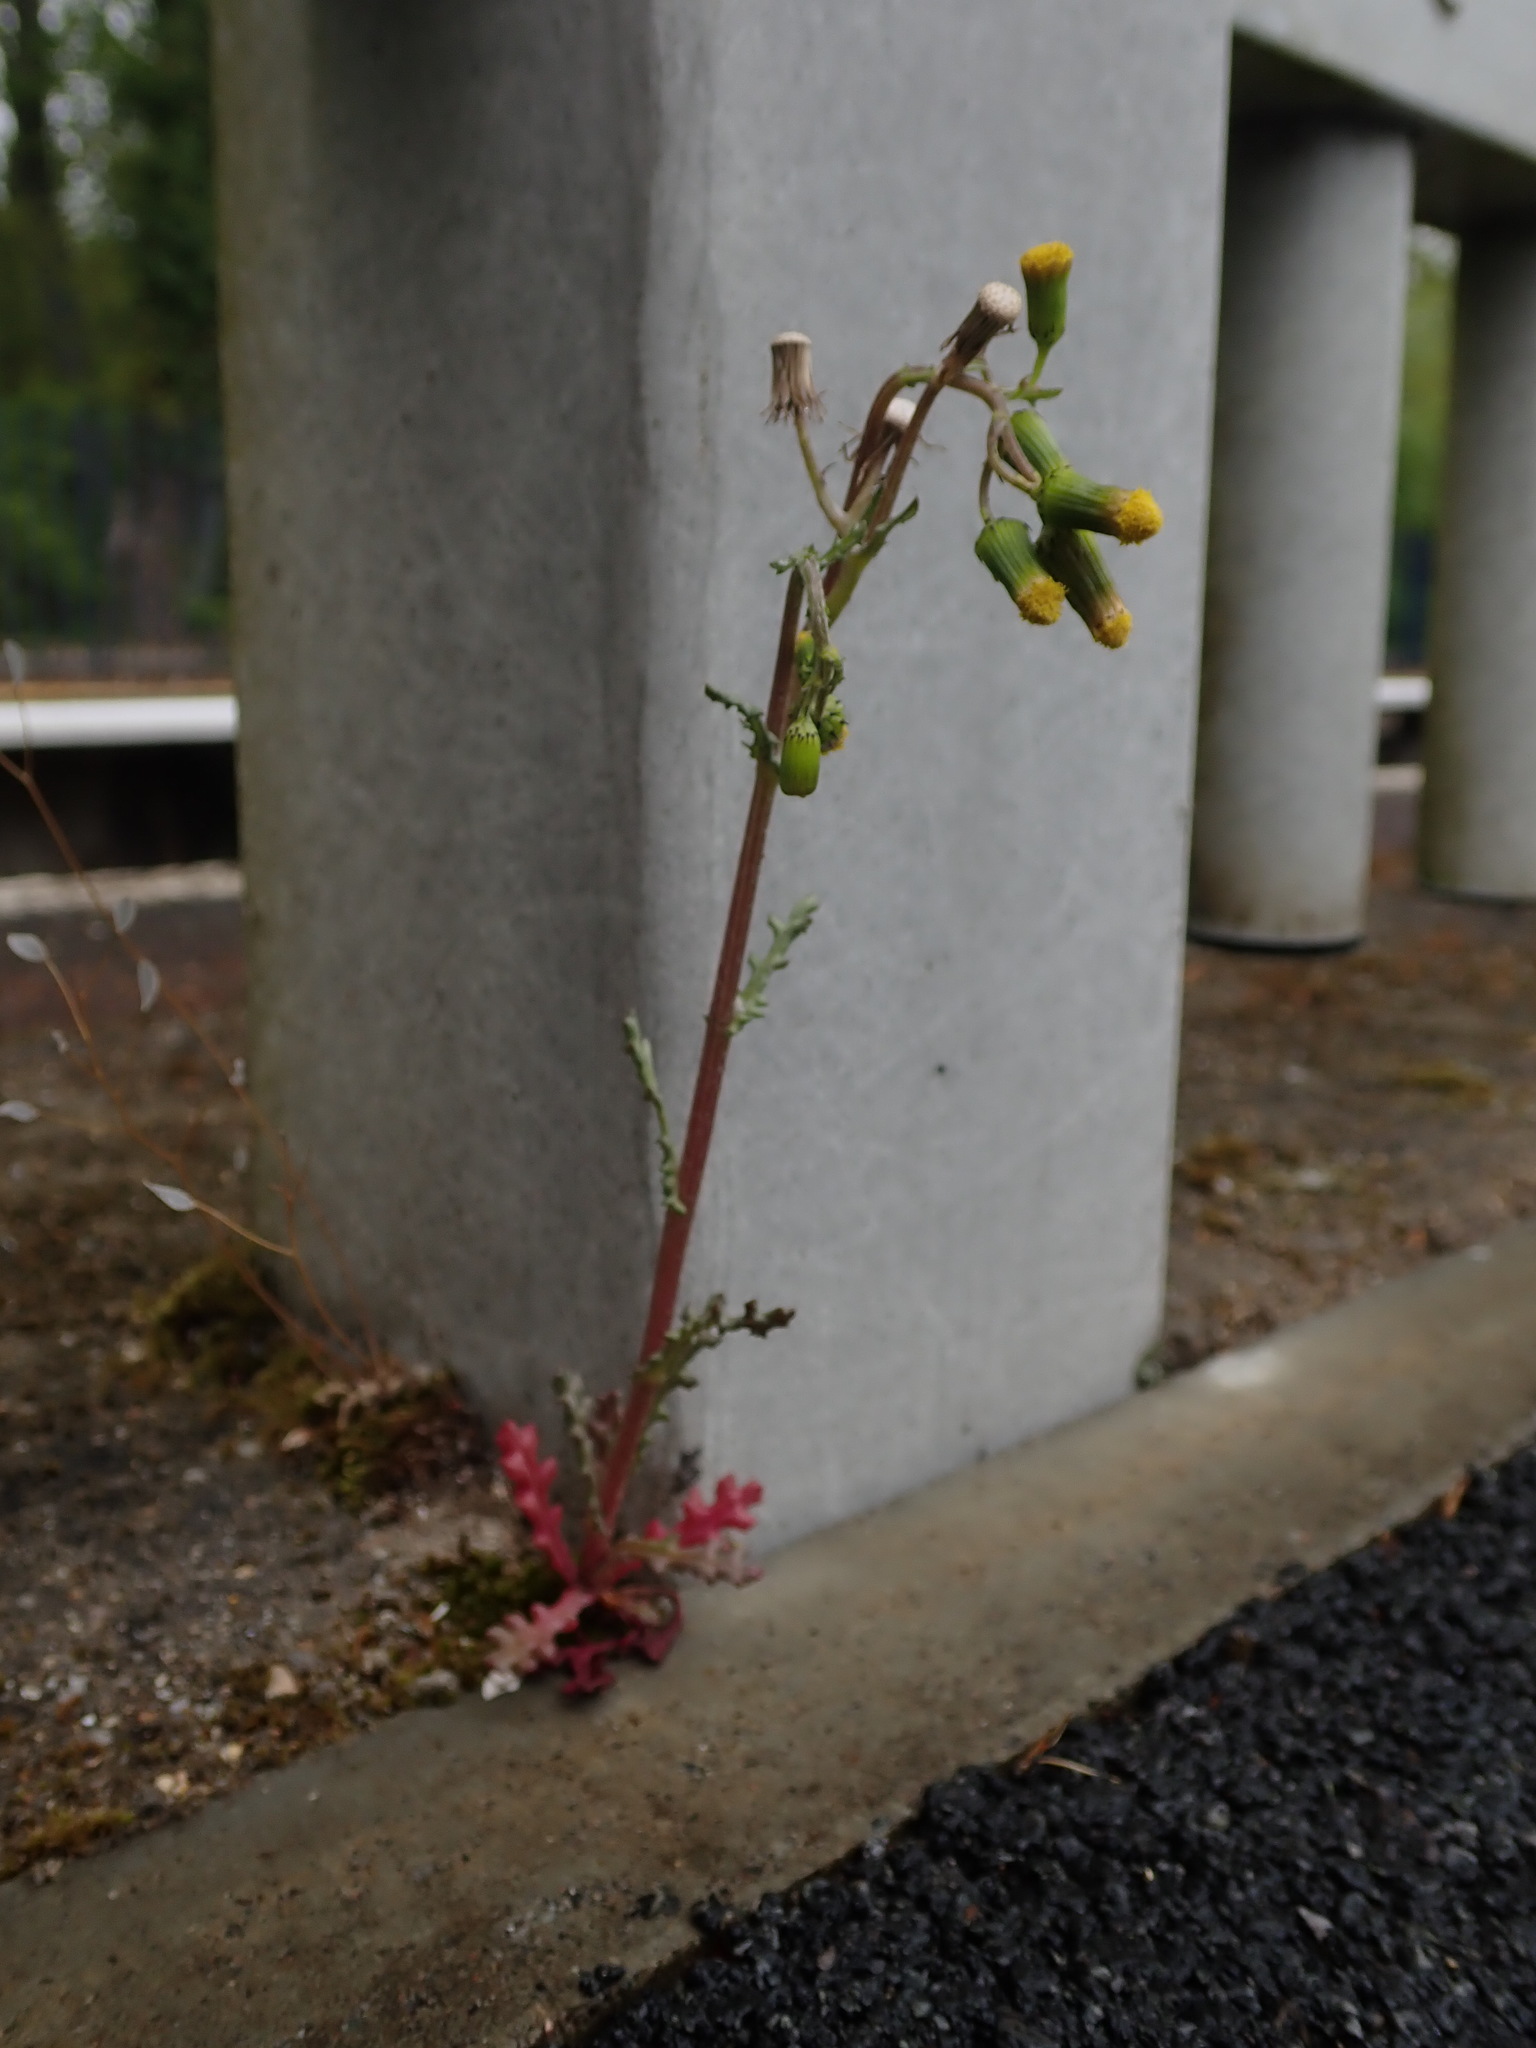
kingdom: Plantae
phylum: Tracheophyta
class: Magnoliopsida
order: Asterales
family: Asteraceae
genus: Senecio
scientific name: Senecio vulgaris
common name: Old-man-in-the-spring
